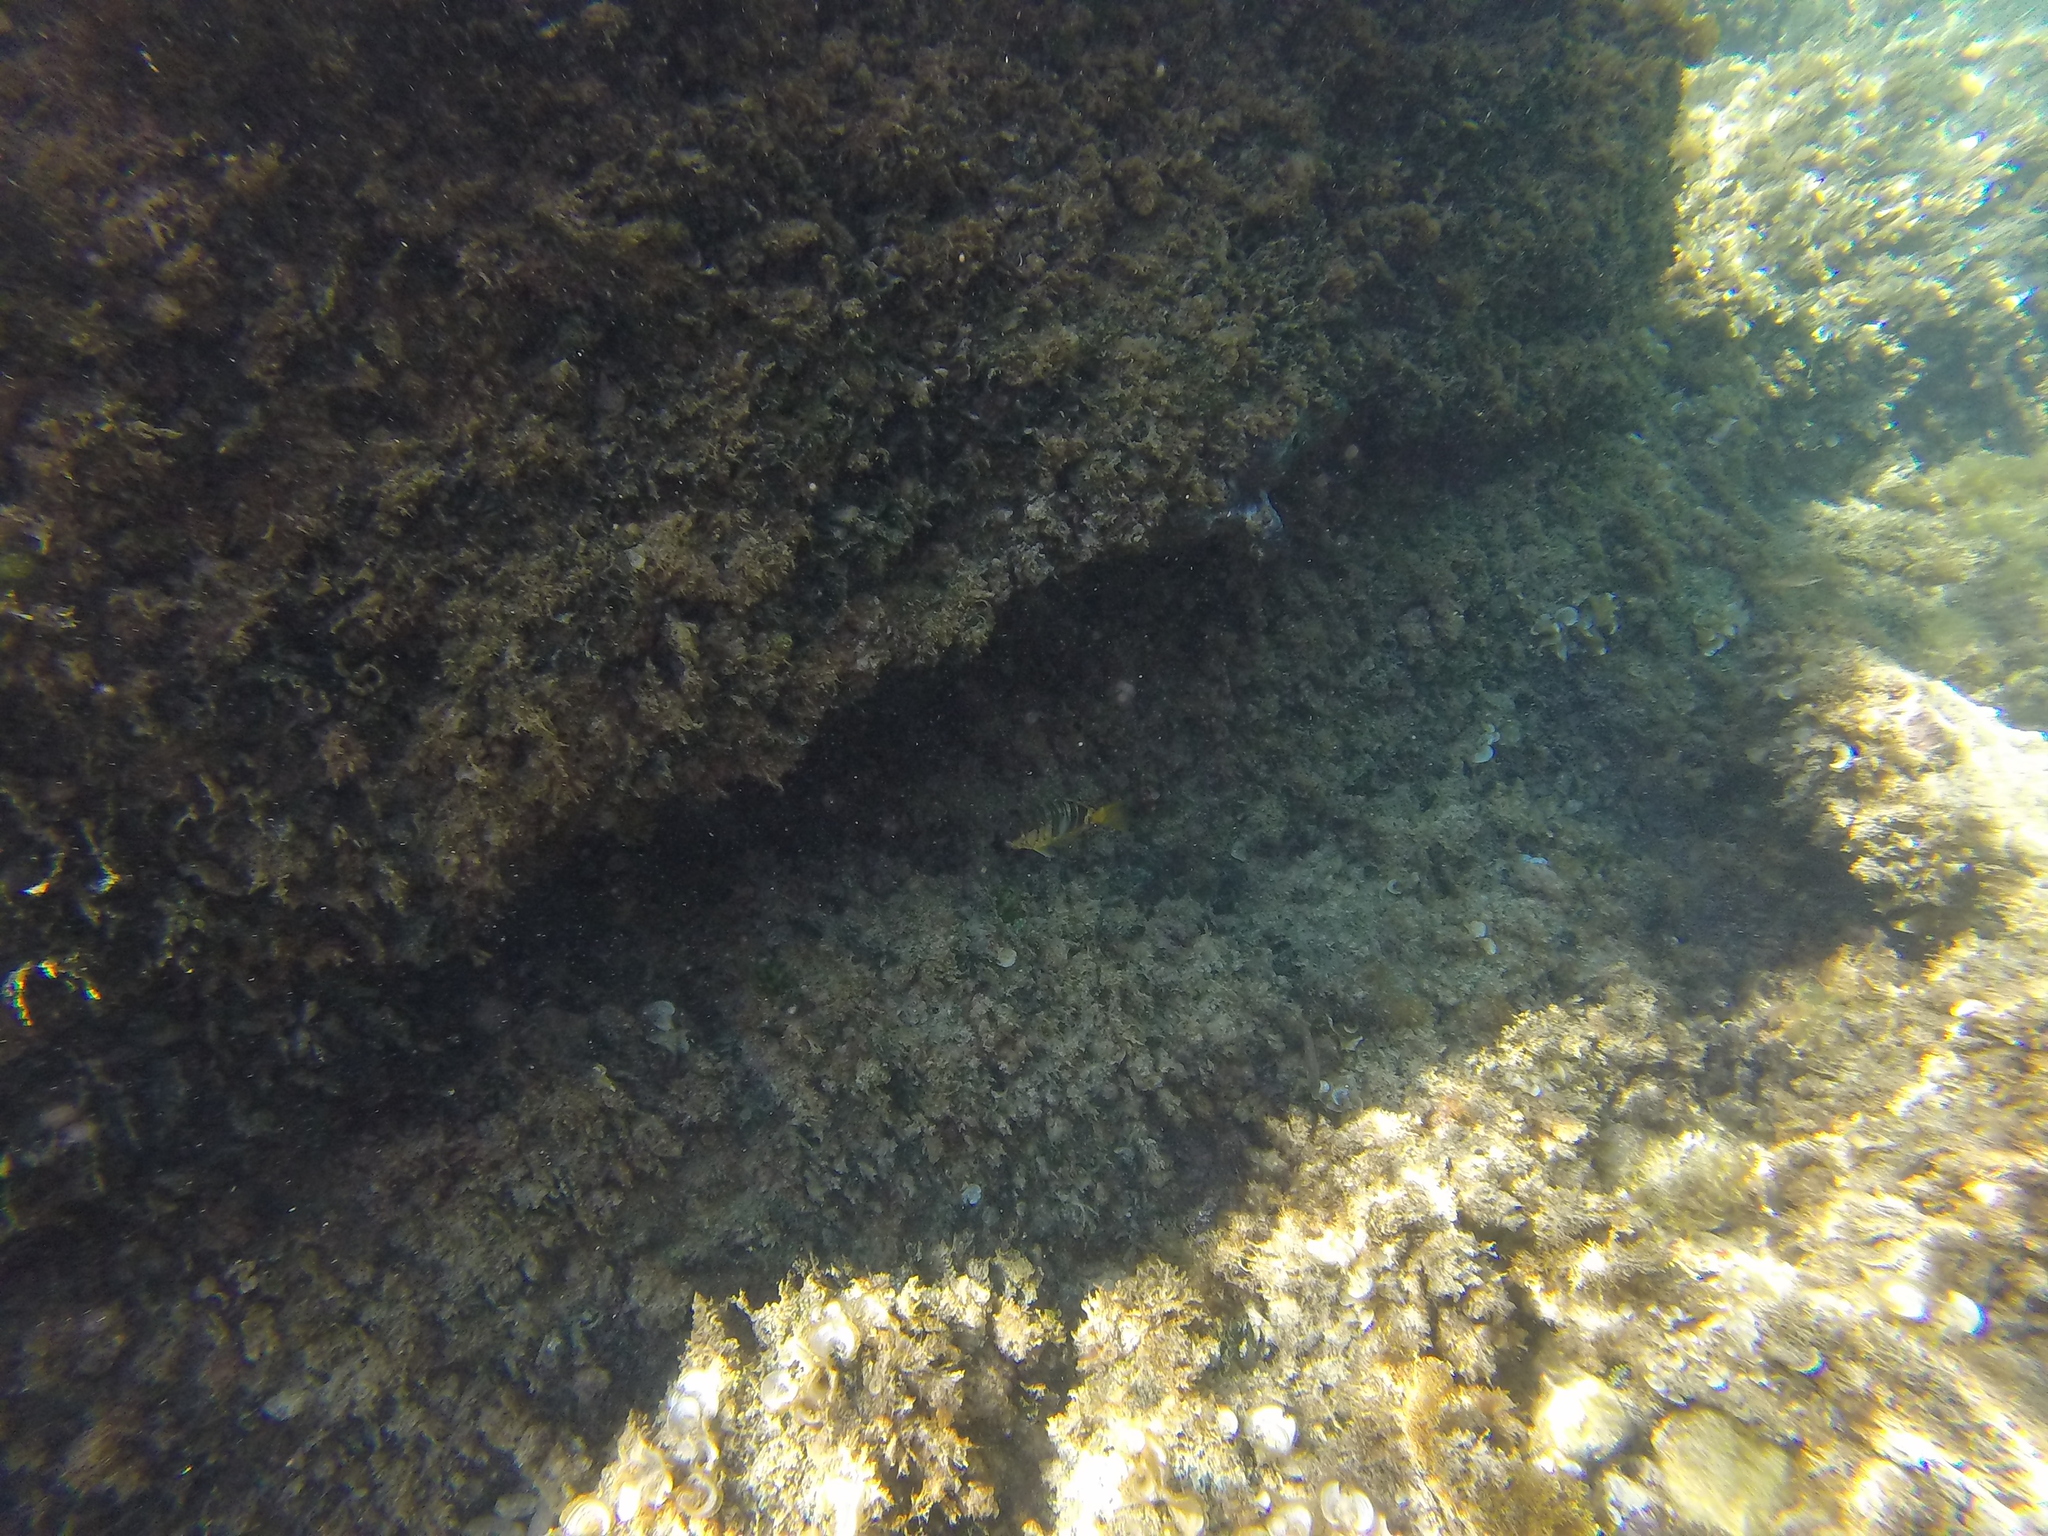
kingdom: Animalia
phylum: Chordata
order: Perciformes
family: Serranidae
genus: Serranus
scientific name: Serranus scriba
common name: Painted comber
